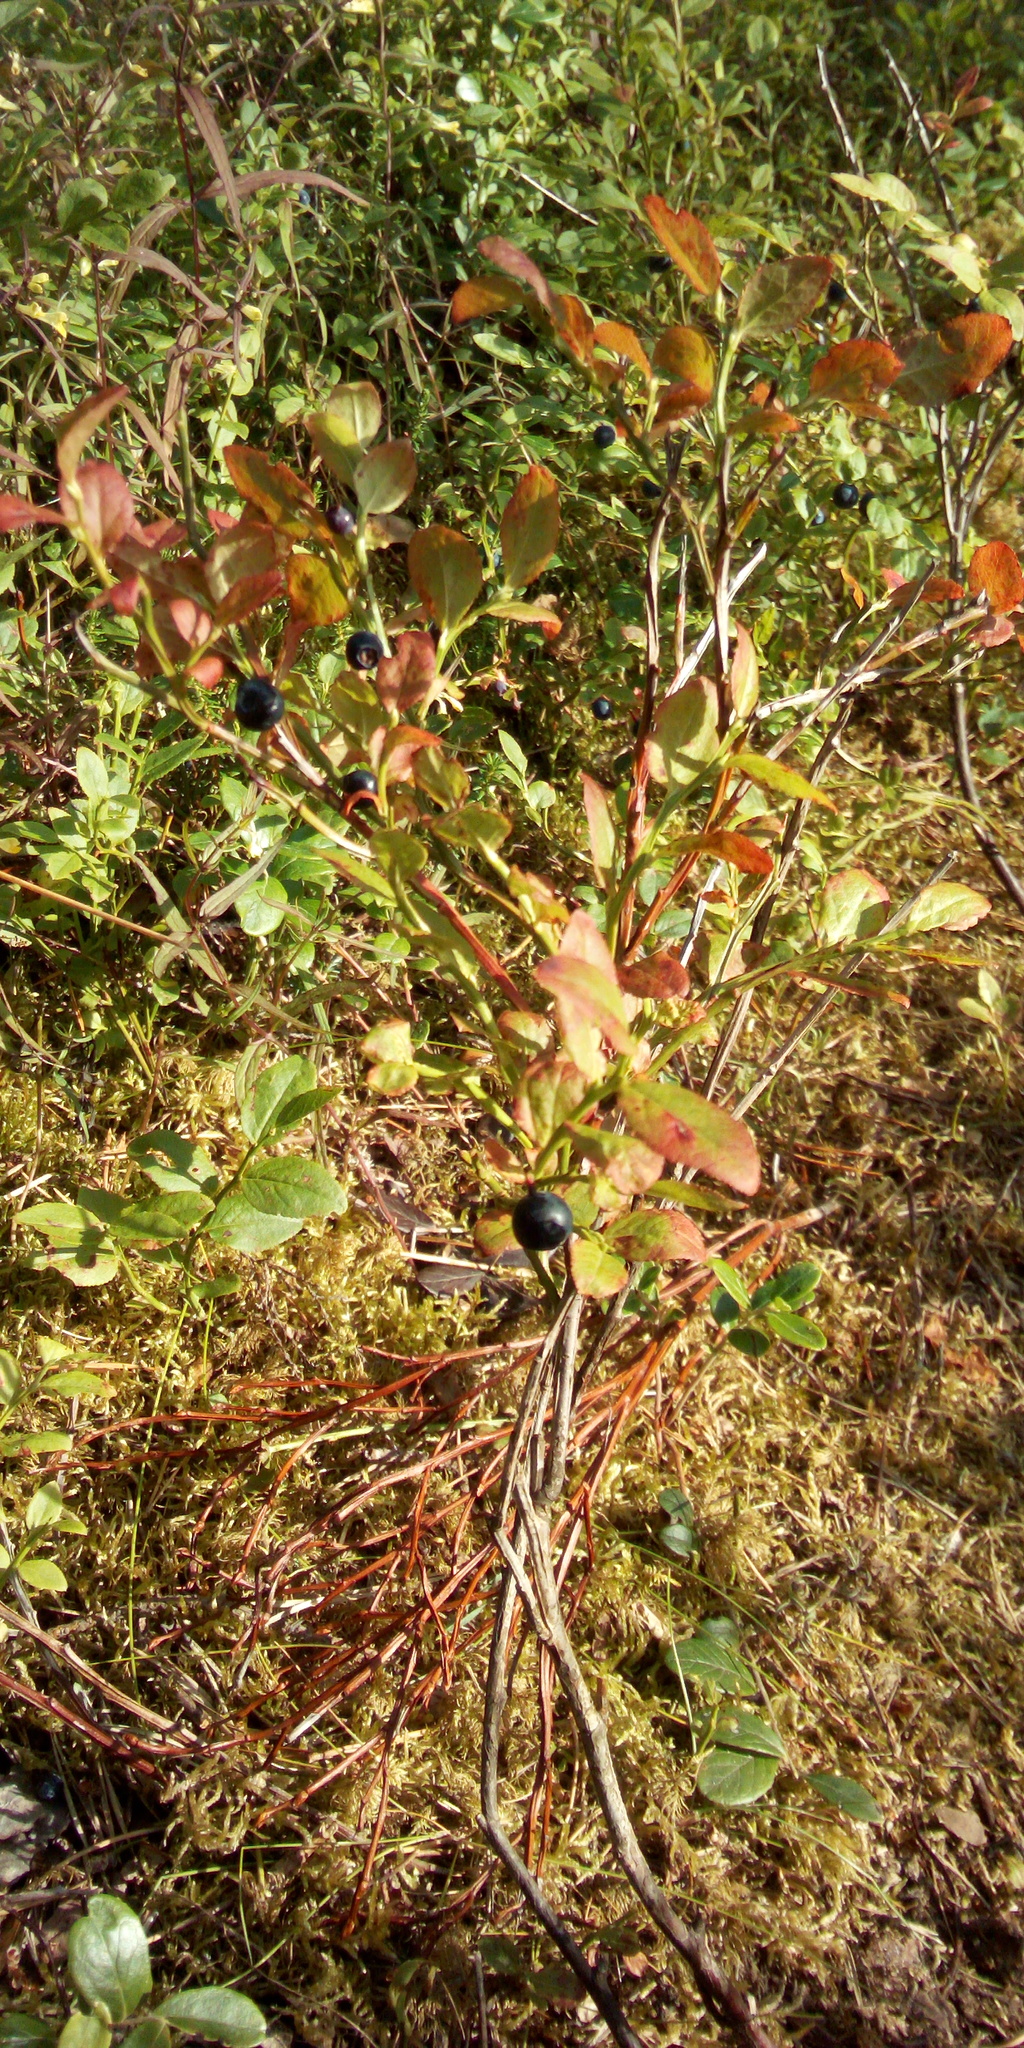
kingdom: Plantae
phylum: Tracheophyta
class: Magnoliopsida
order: Ericales
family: Ericaceae
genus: Vaccinium
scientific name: Vaccinium myrtillus
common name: Bilberry
